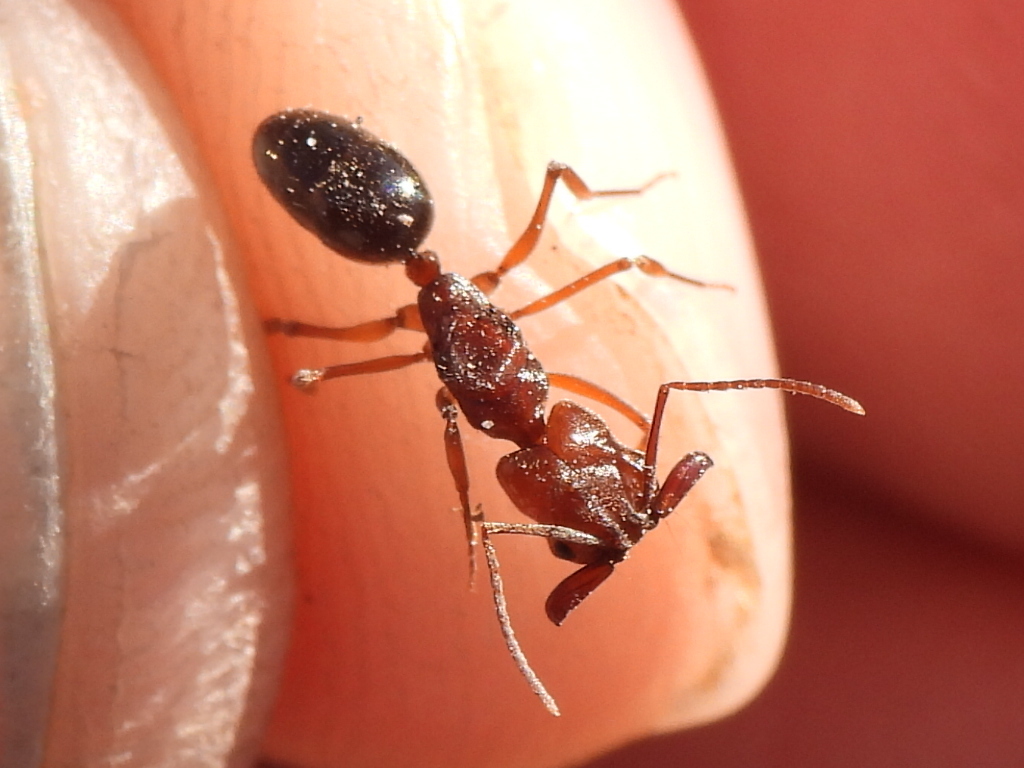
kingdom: Animalia
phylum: Arthropoda
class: Insecta
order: Hymenoptera
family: Formicidae
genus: Odontomachus
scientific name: Odontomachus clarus
